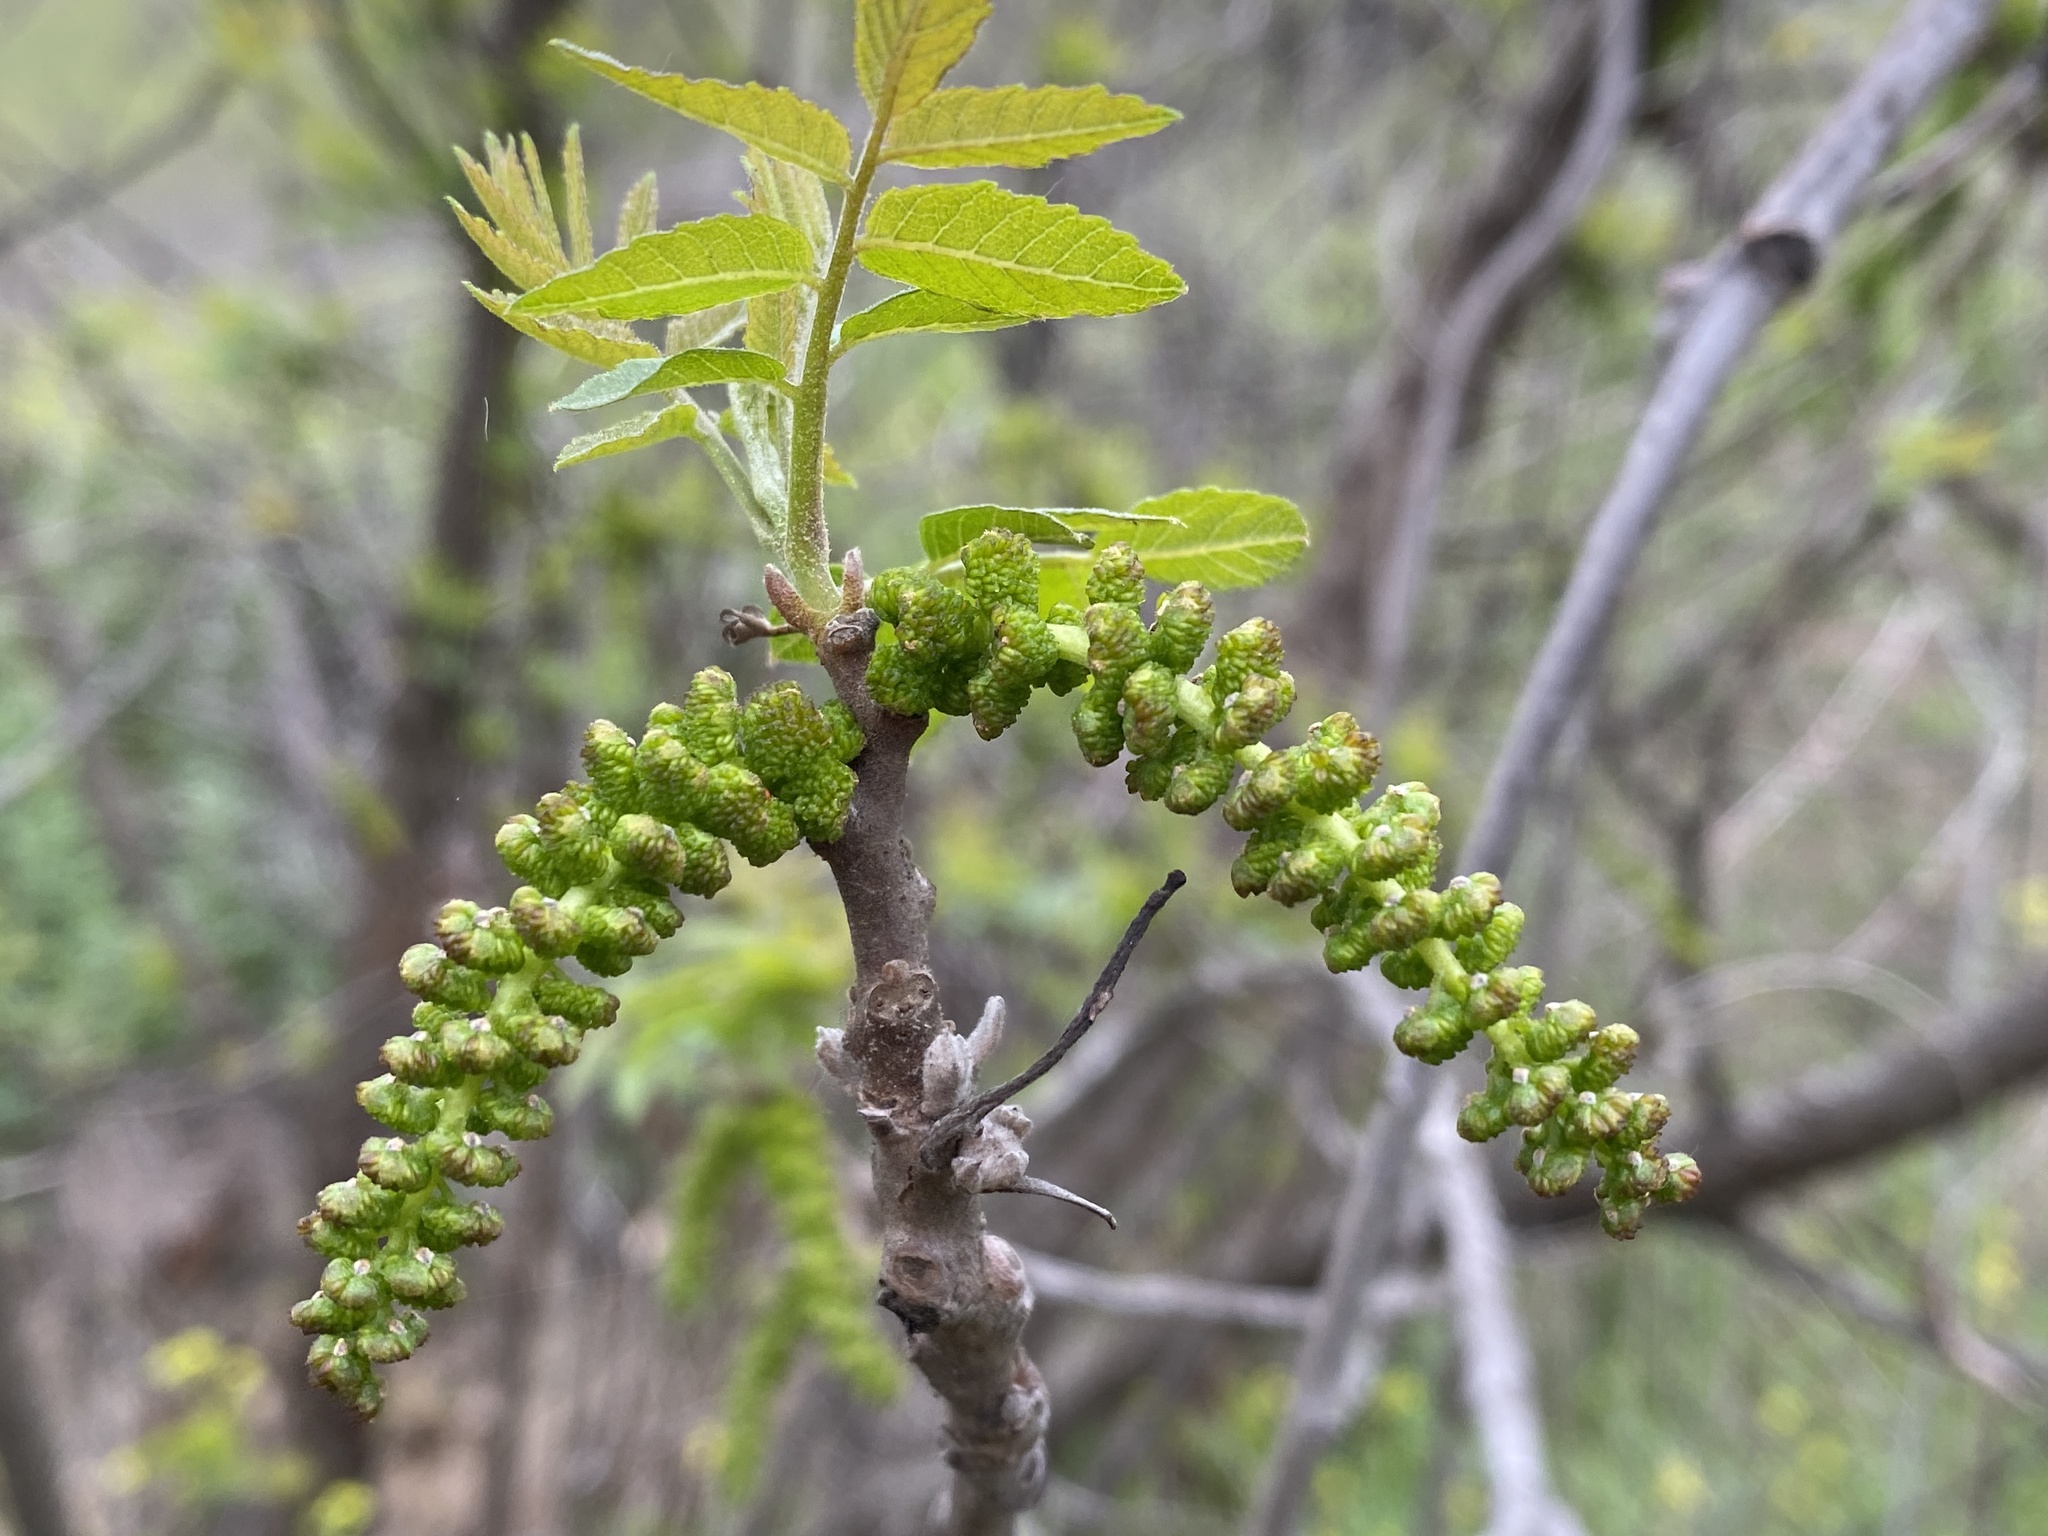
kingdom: Plantae
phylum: Tracheophyta
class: Magnoliopsida
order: Fagales
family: Juglandaceae
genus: Juglans
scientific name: Juglans californica
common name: Southern california black walnut
